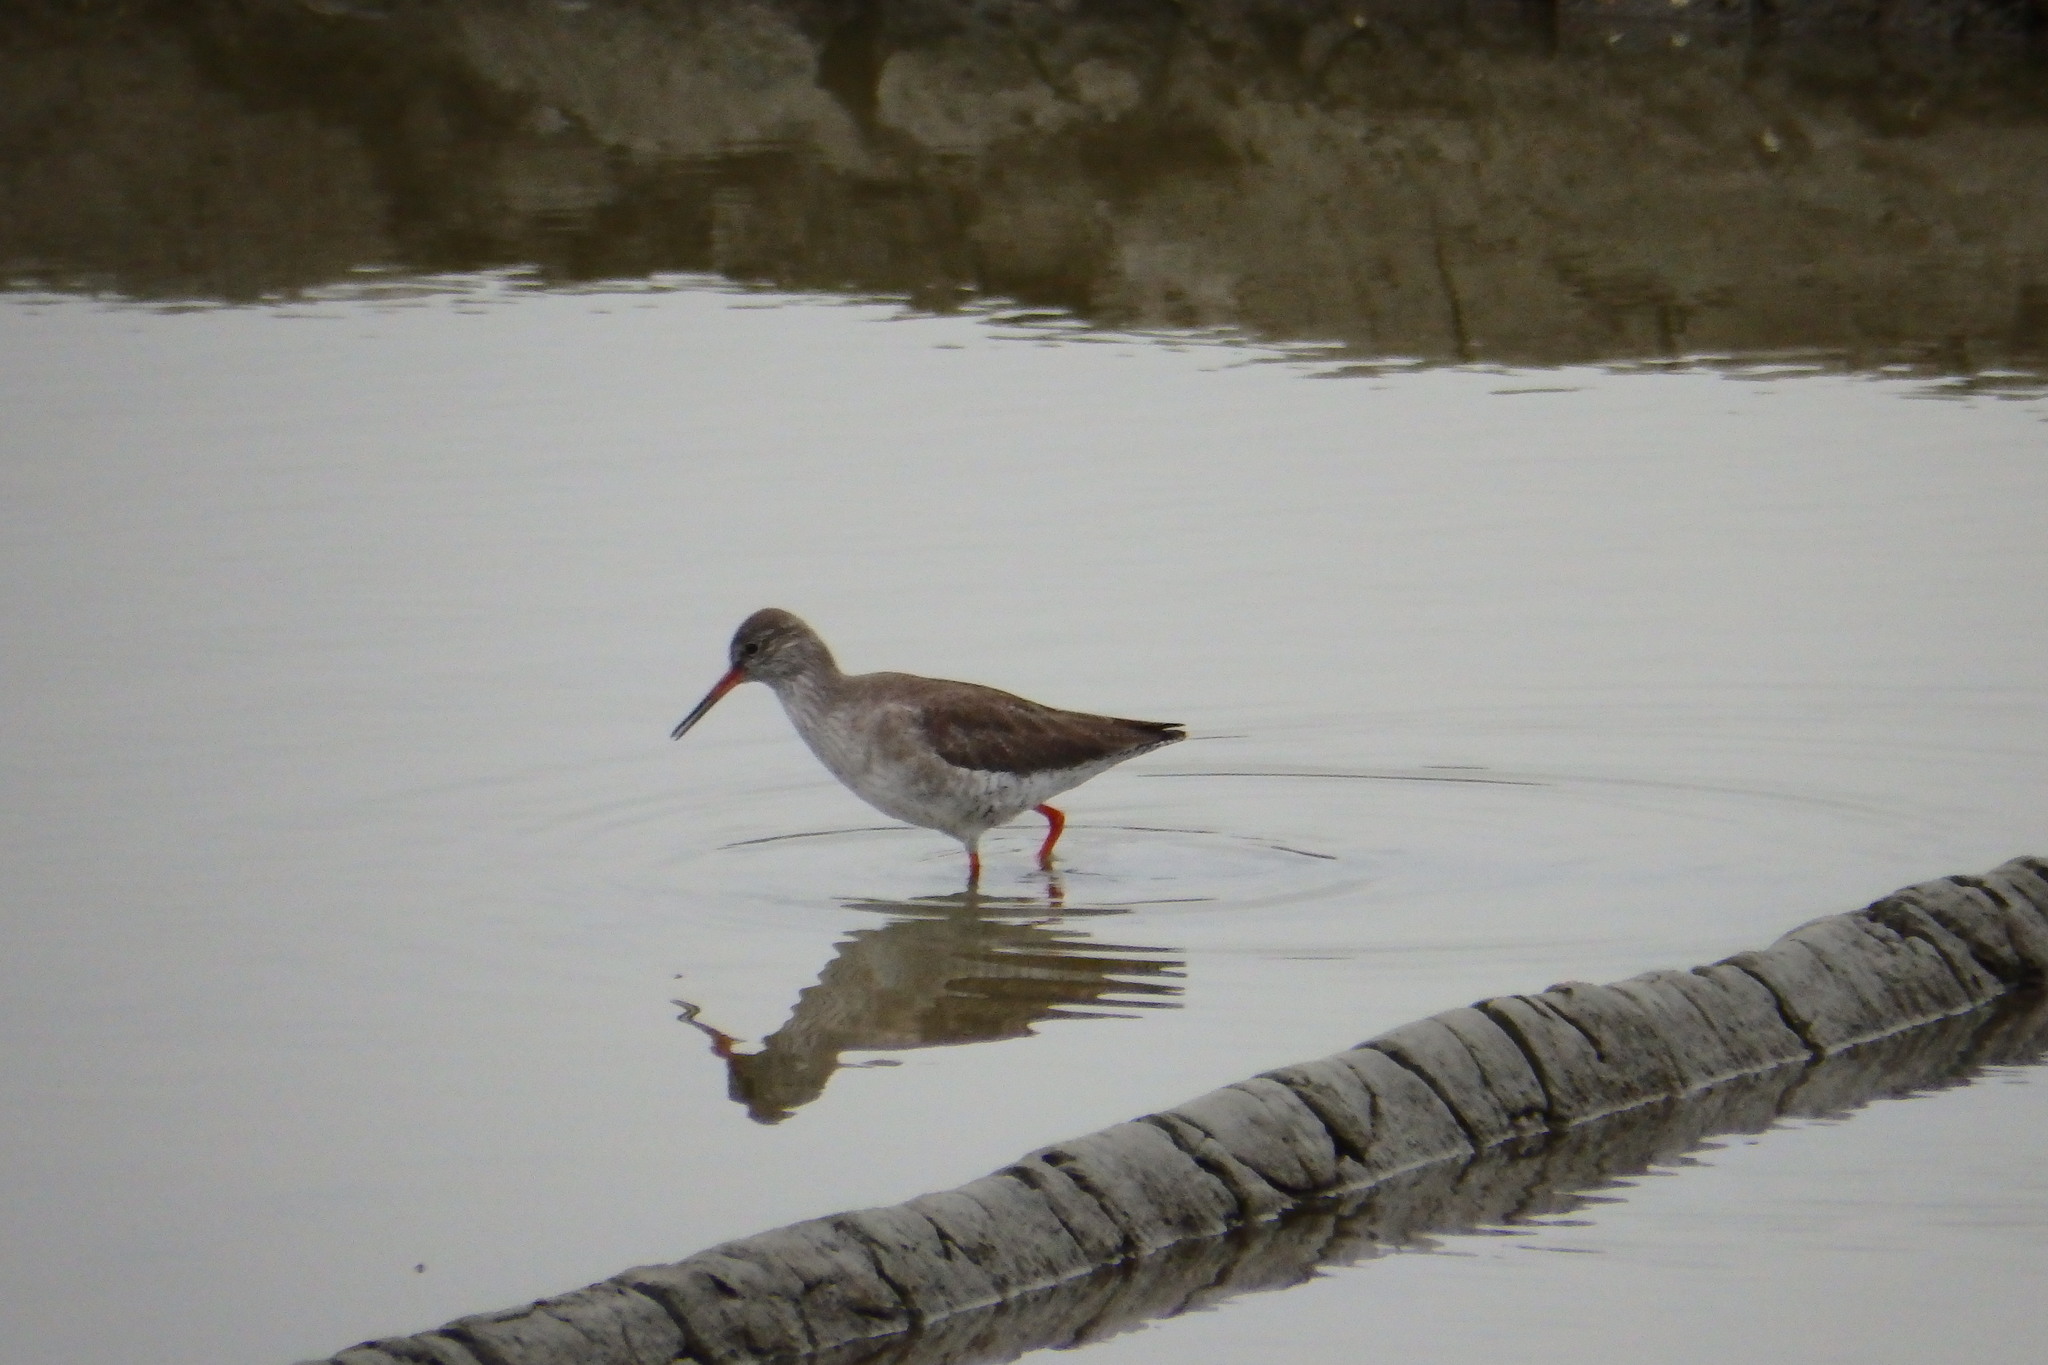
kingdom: Animalia
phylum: Chordata
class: Aves
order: Charadriiformes
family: Scolopacidae
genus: Tringa
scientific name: Tringa totanus
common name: Common redshank
